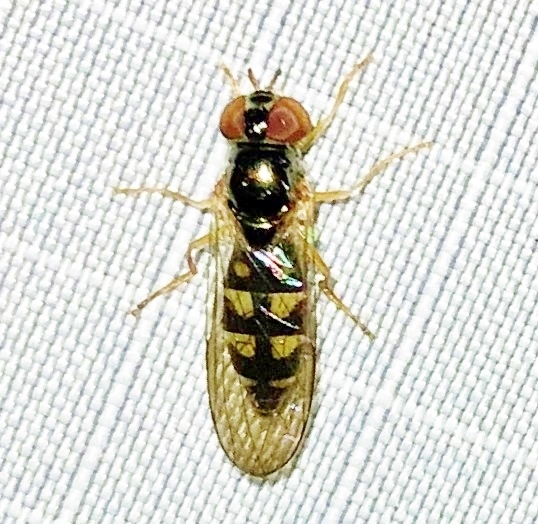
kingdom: Animalia
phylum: Arthropoda
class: Insecta
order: Diptera
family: Syrphidae
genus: Melanostoma
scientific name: Melanostoma mellina
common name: Hover fly
